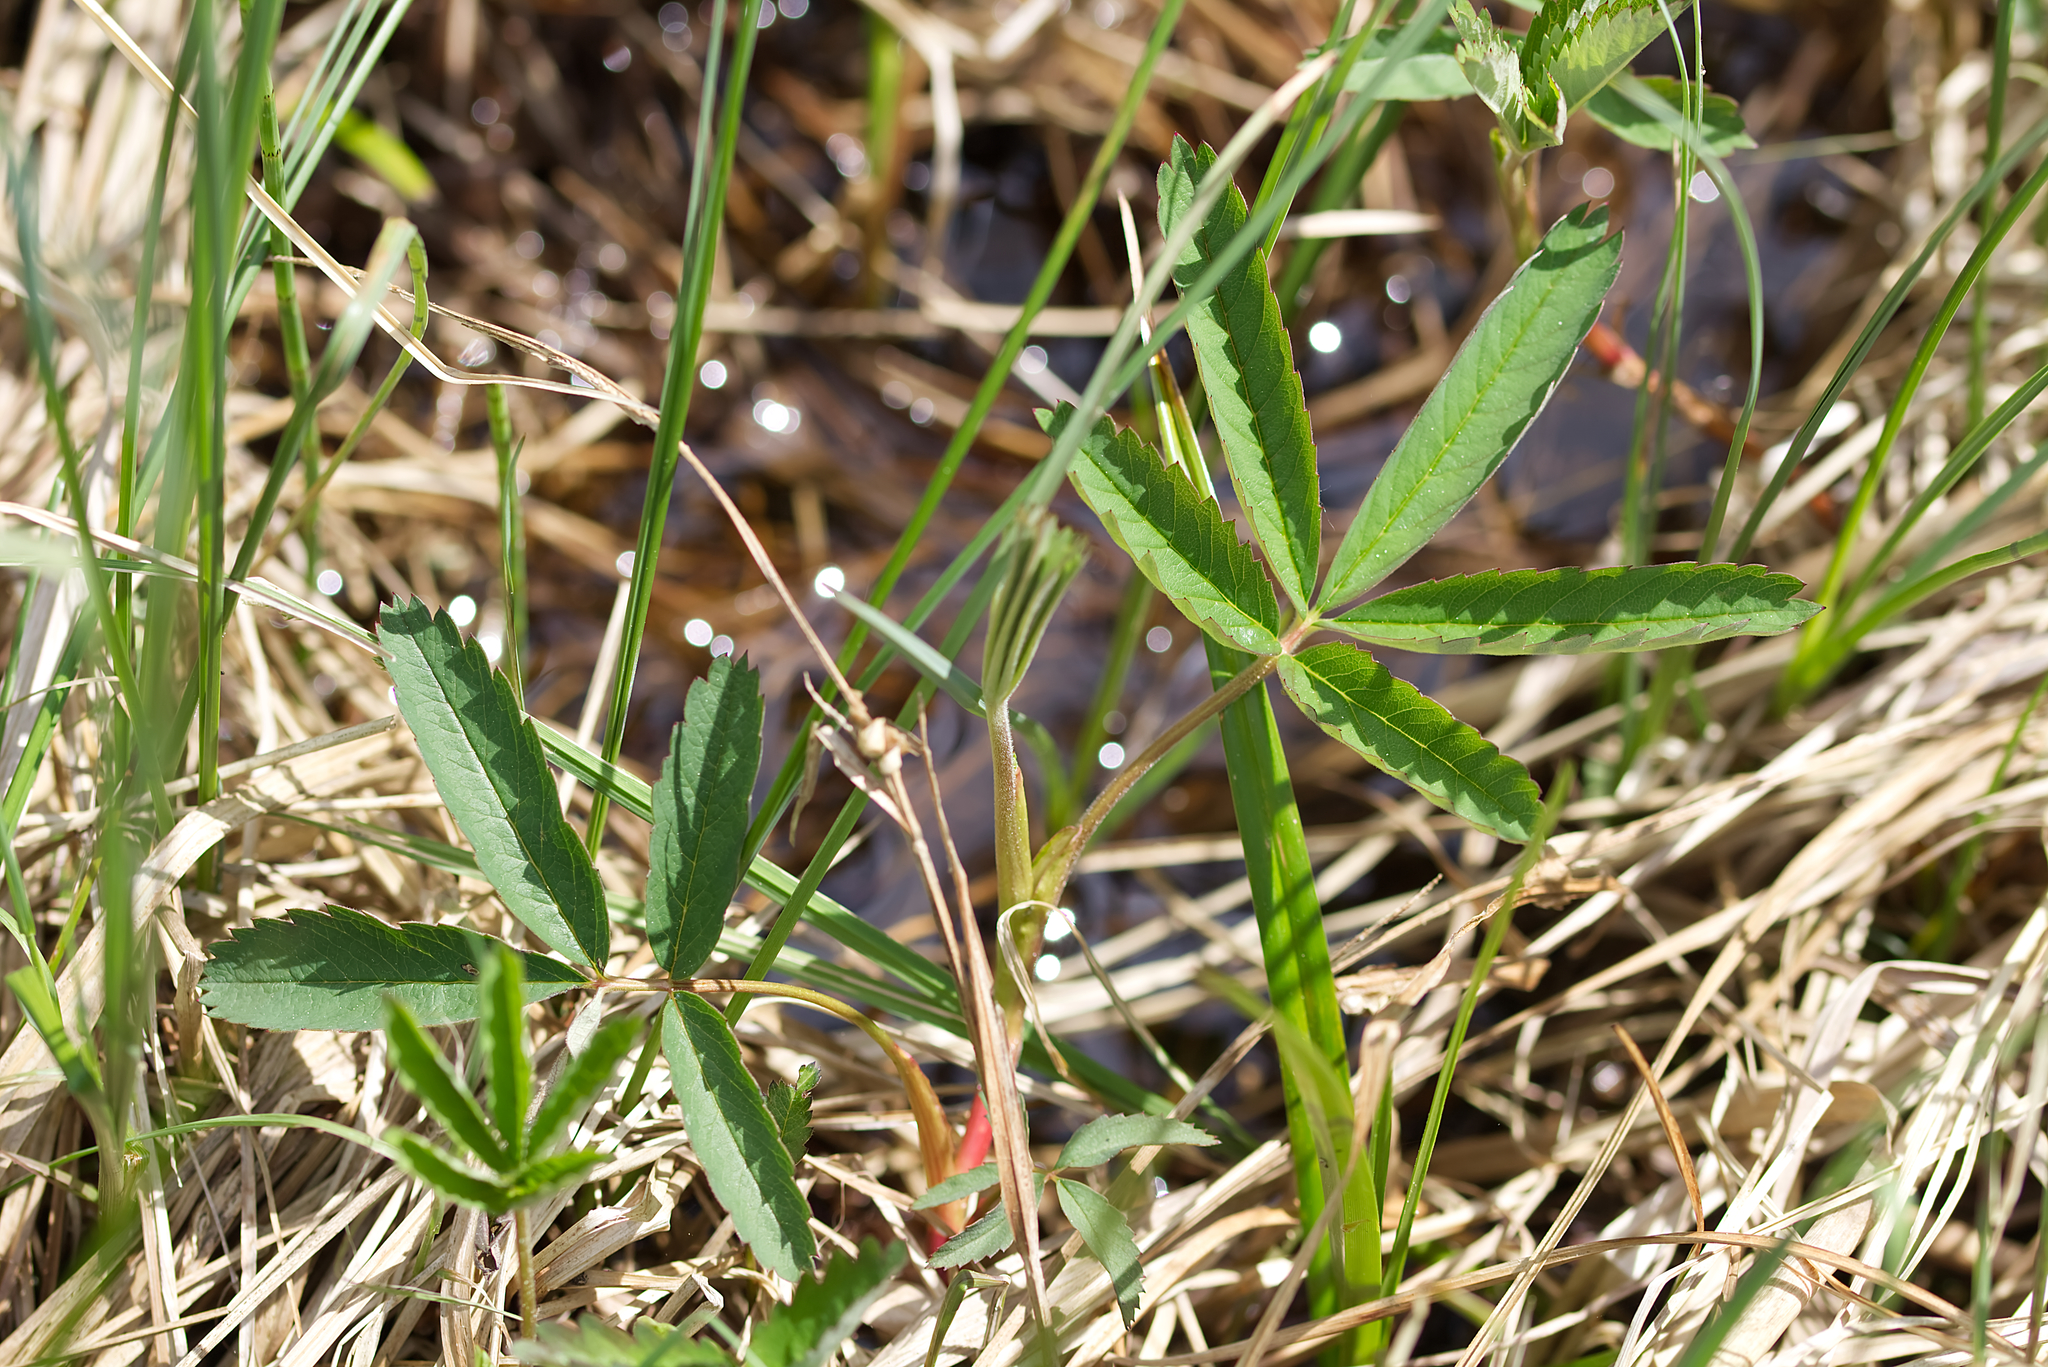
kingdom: Plantae
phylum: Tracheophyta
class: Magnoliopsida
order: Rosales
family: Rosaceae
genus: Comarum
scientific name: Comarum palustre
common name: Marsh cinquefoil
